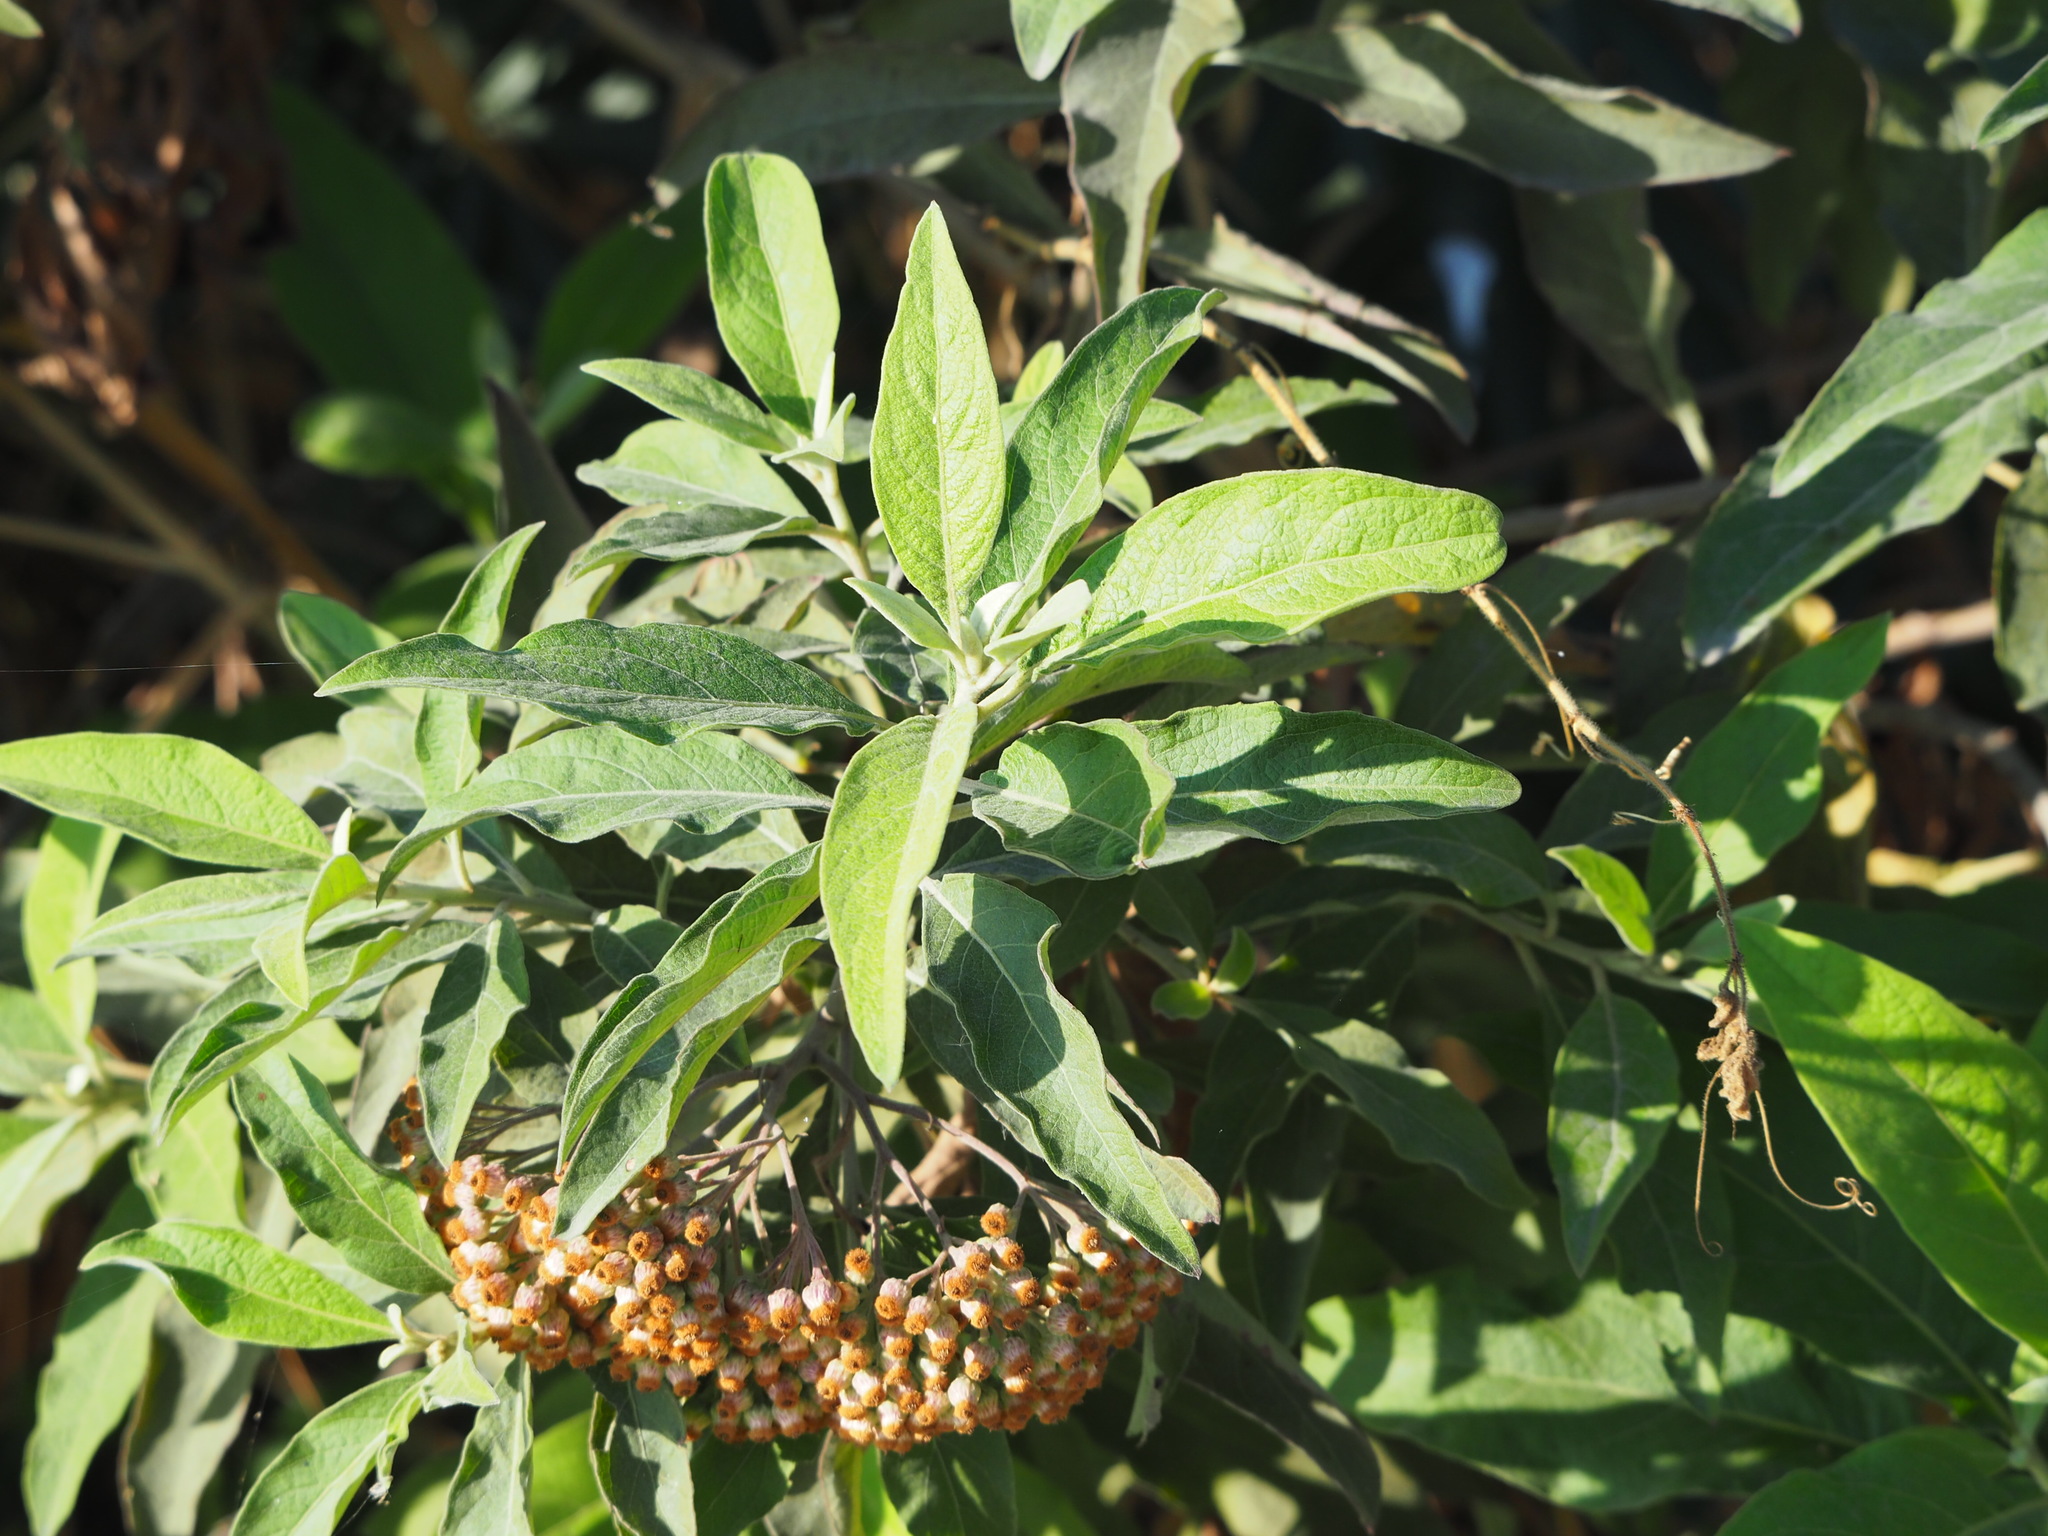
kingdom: Plantae
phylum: Tracheophyta
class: Magnoliopsida
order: Asterales
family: Asteraceae
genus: Pluchea
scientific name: Pluchea carolinensis
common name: Marsh fleabane
